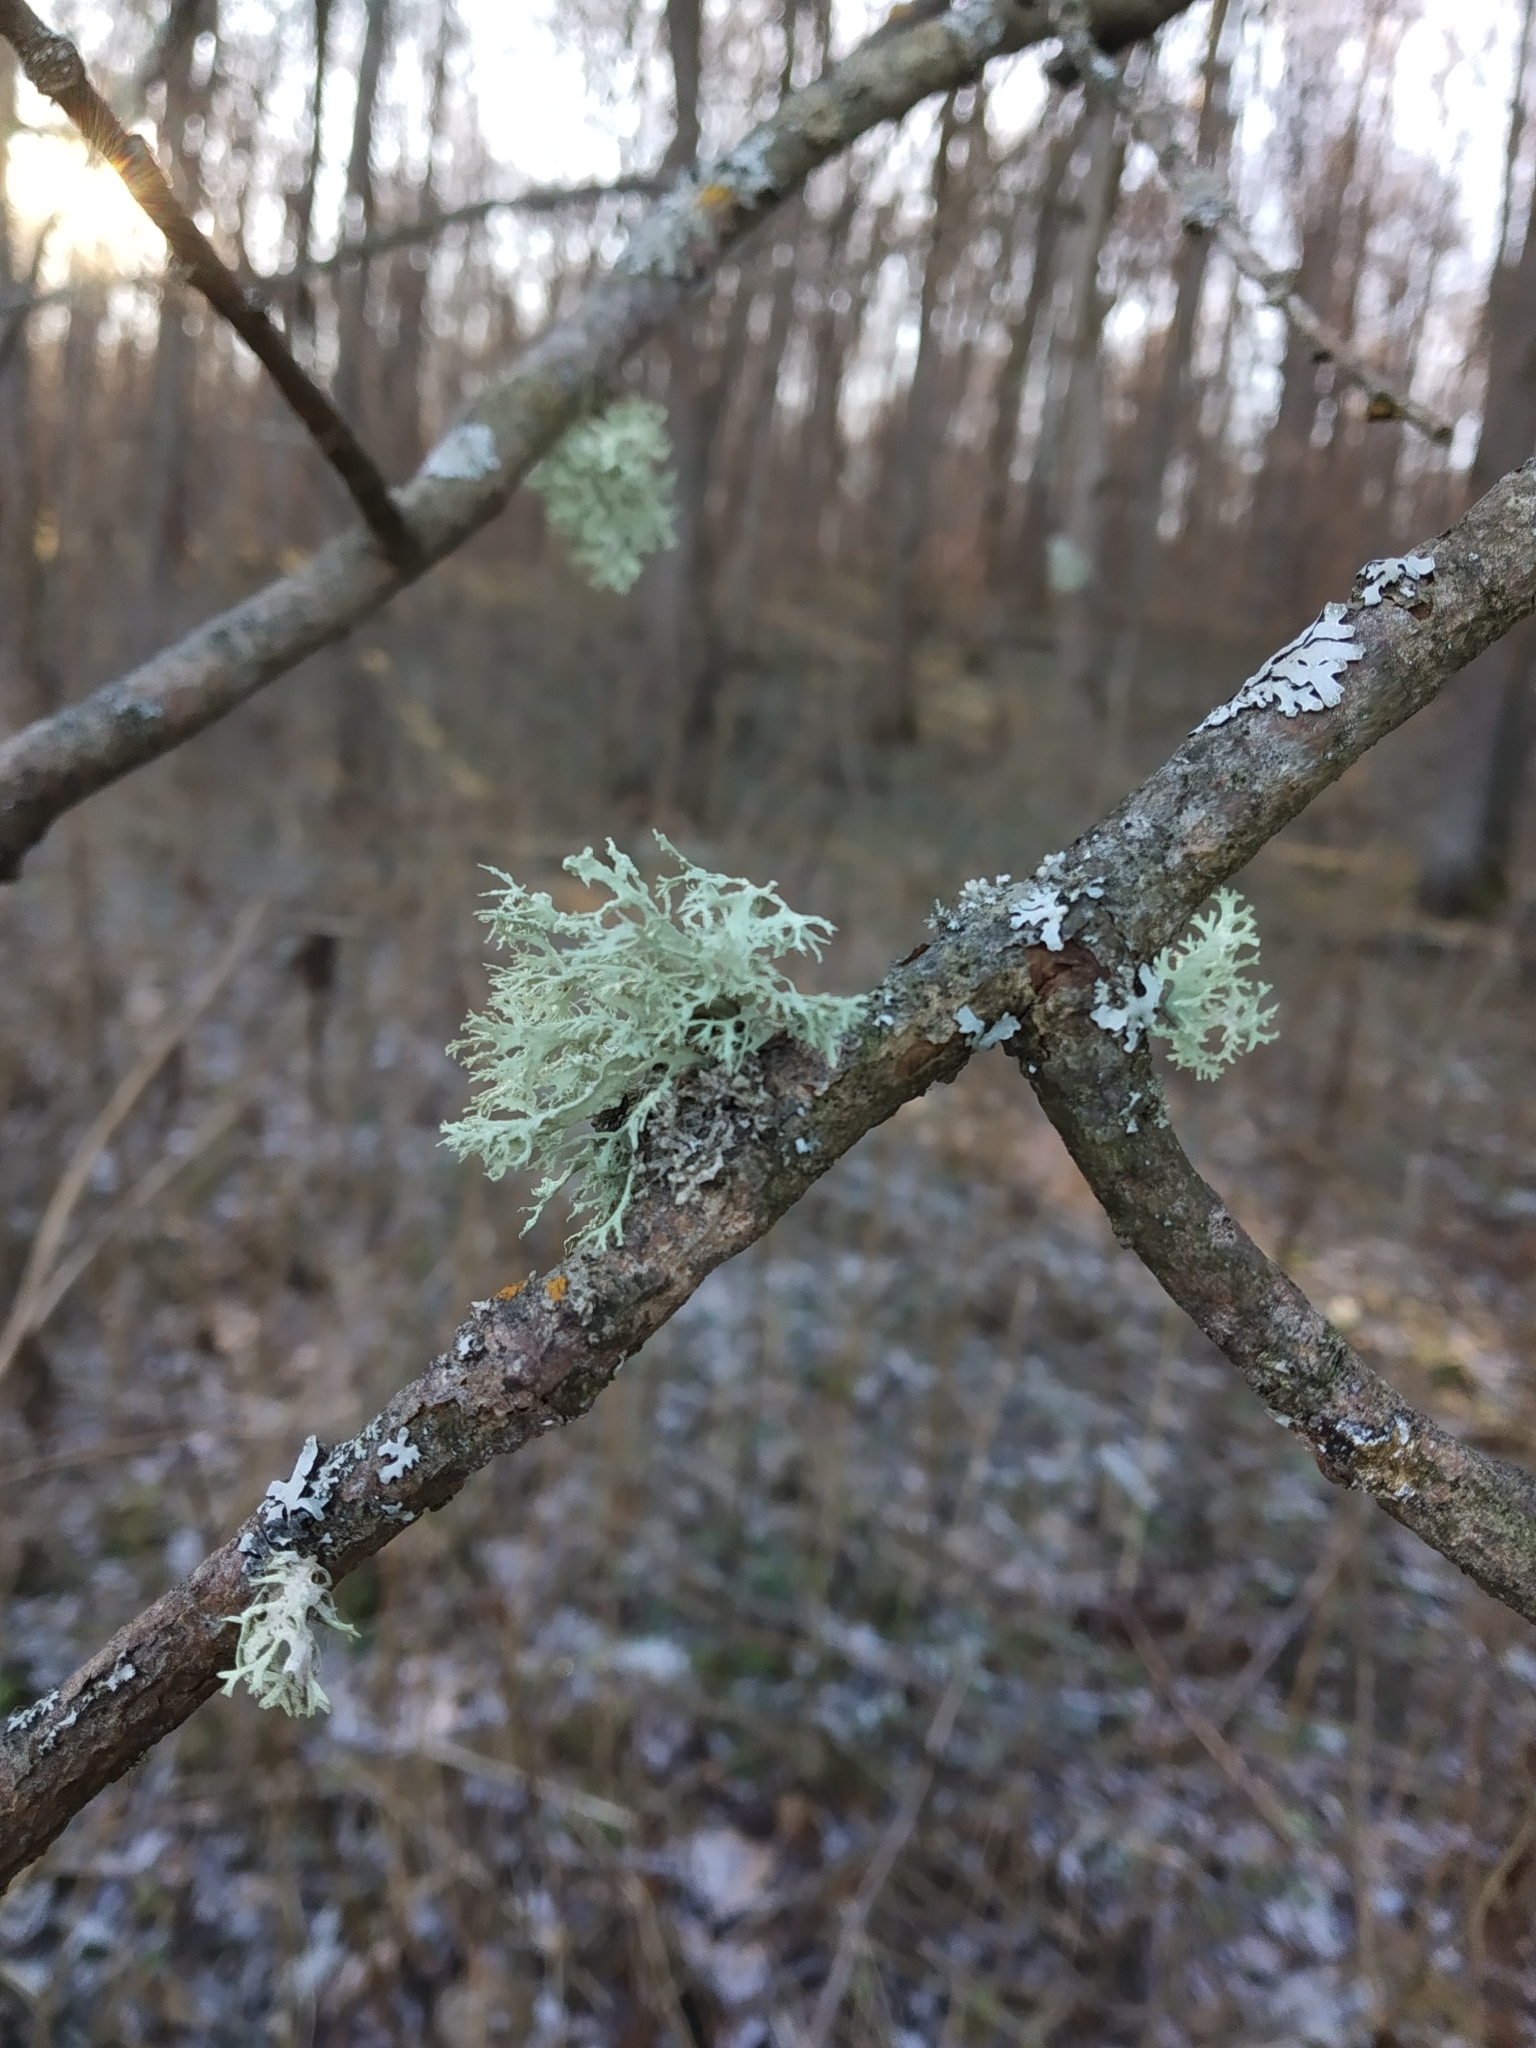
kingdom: Fungi
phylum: Ascomycota
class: Lecanoromycetes
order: Lecanorales
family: Ramalinaceae
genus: Ramalina
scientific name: Ramalina farinacea
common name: Farinose cartilage lichen
